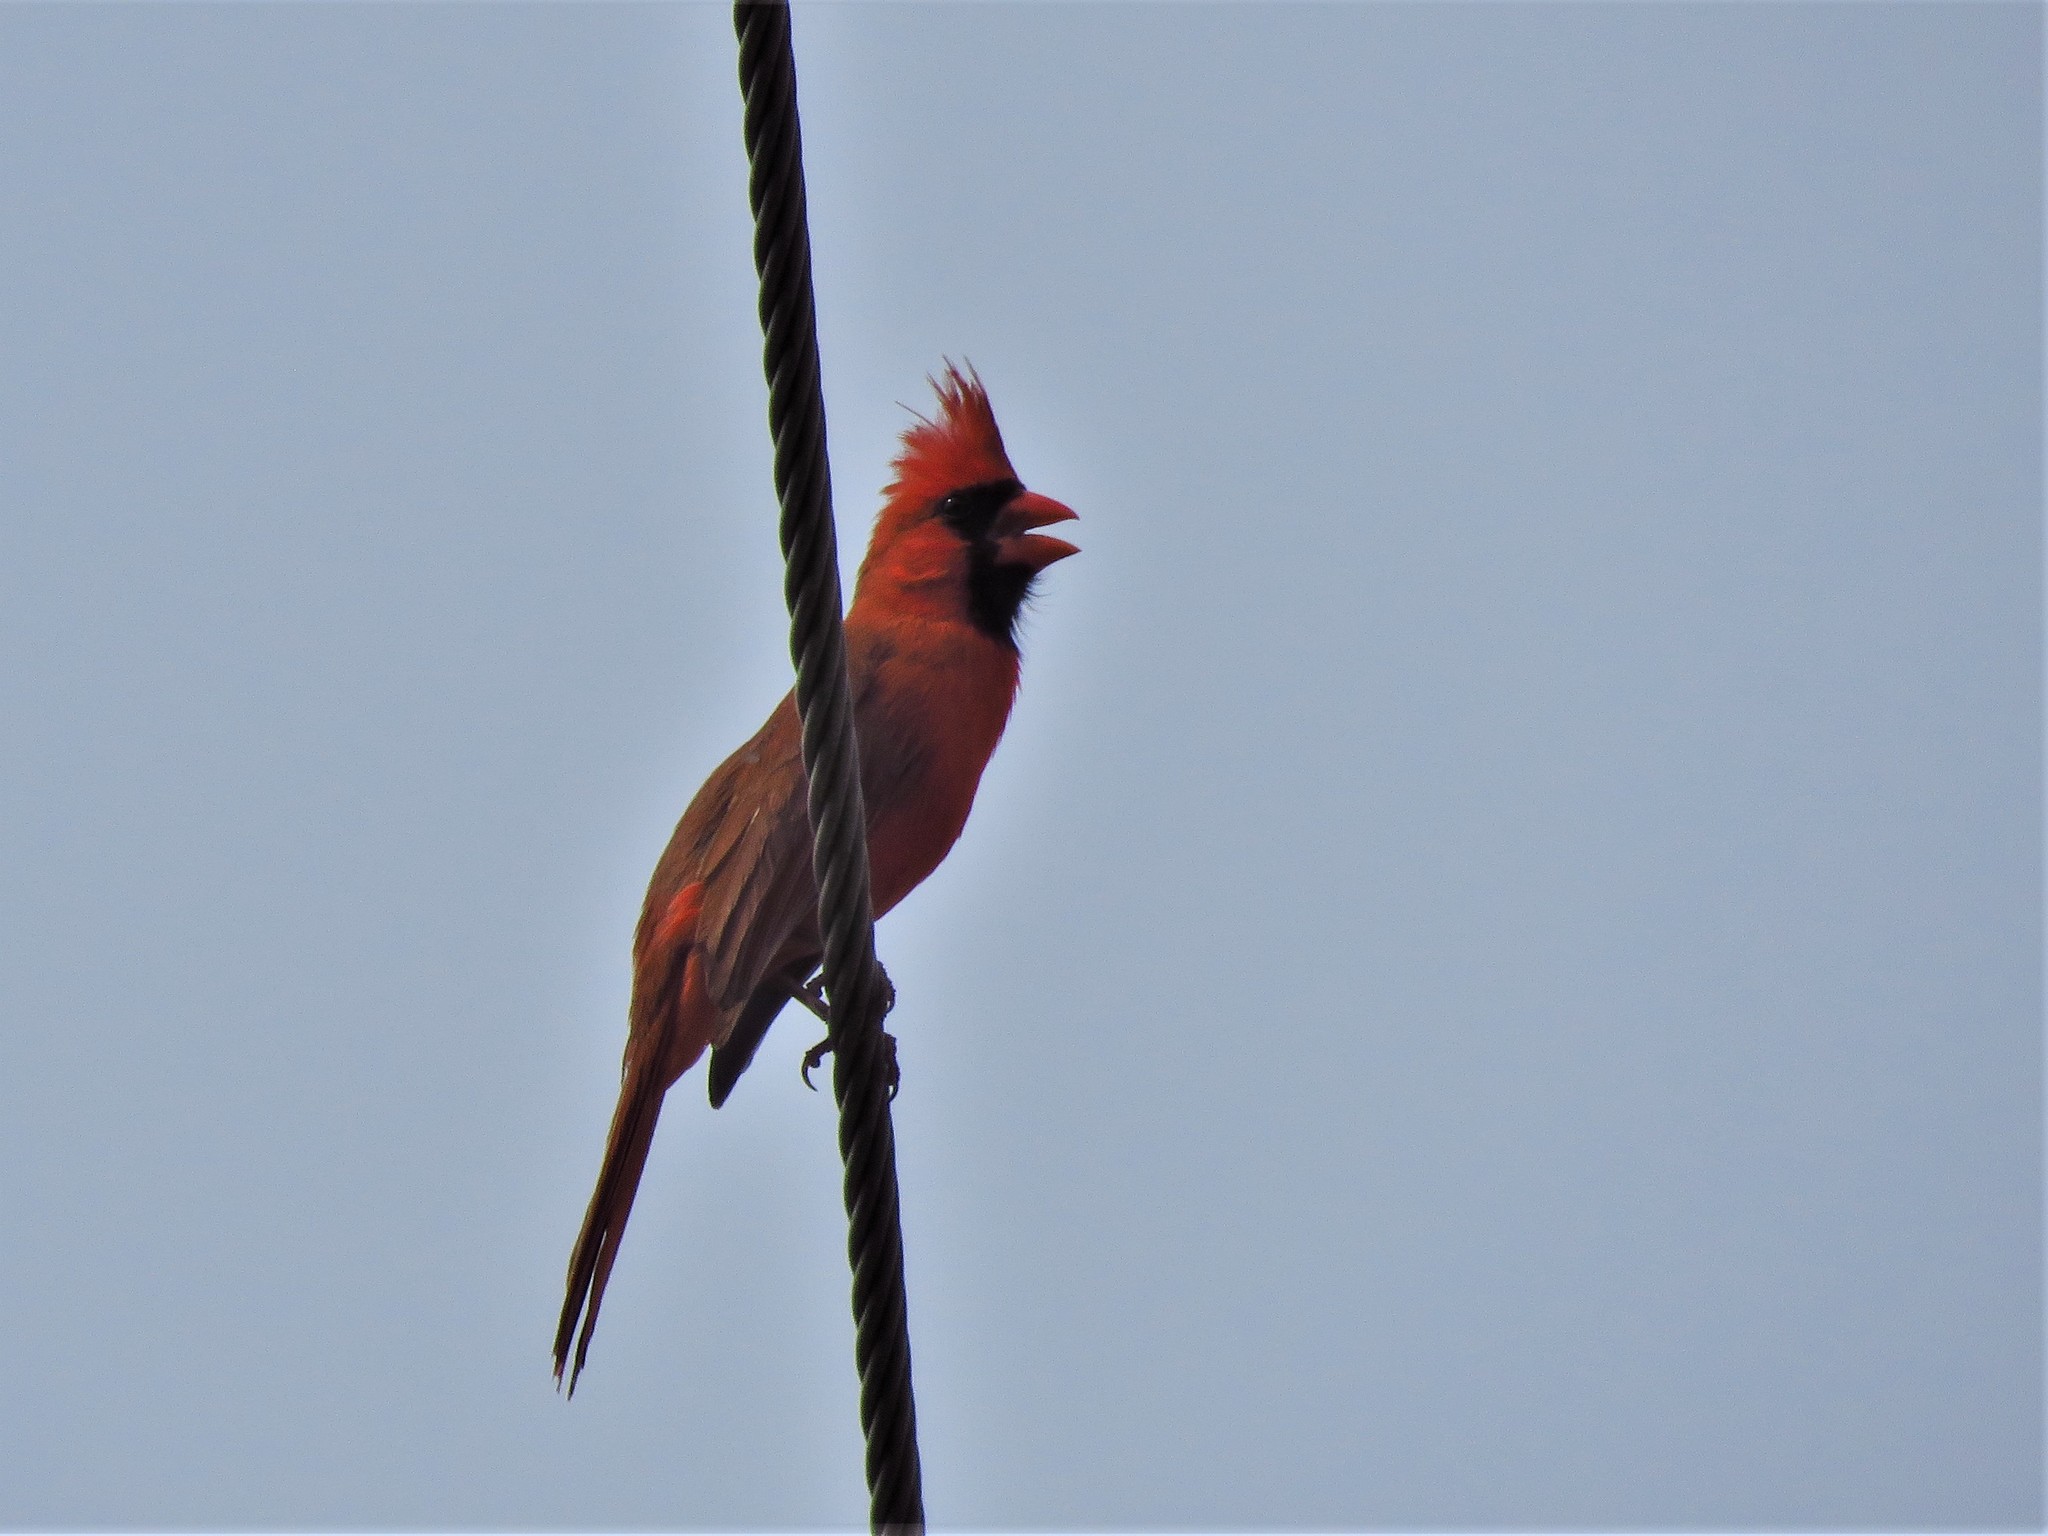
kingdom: Animalia
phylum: Chordata
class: Aves
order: Passeriformes
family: Cardinalidae
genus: Cardinalis
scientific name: Cardinalis cardinalis
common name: Northern cardinal
